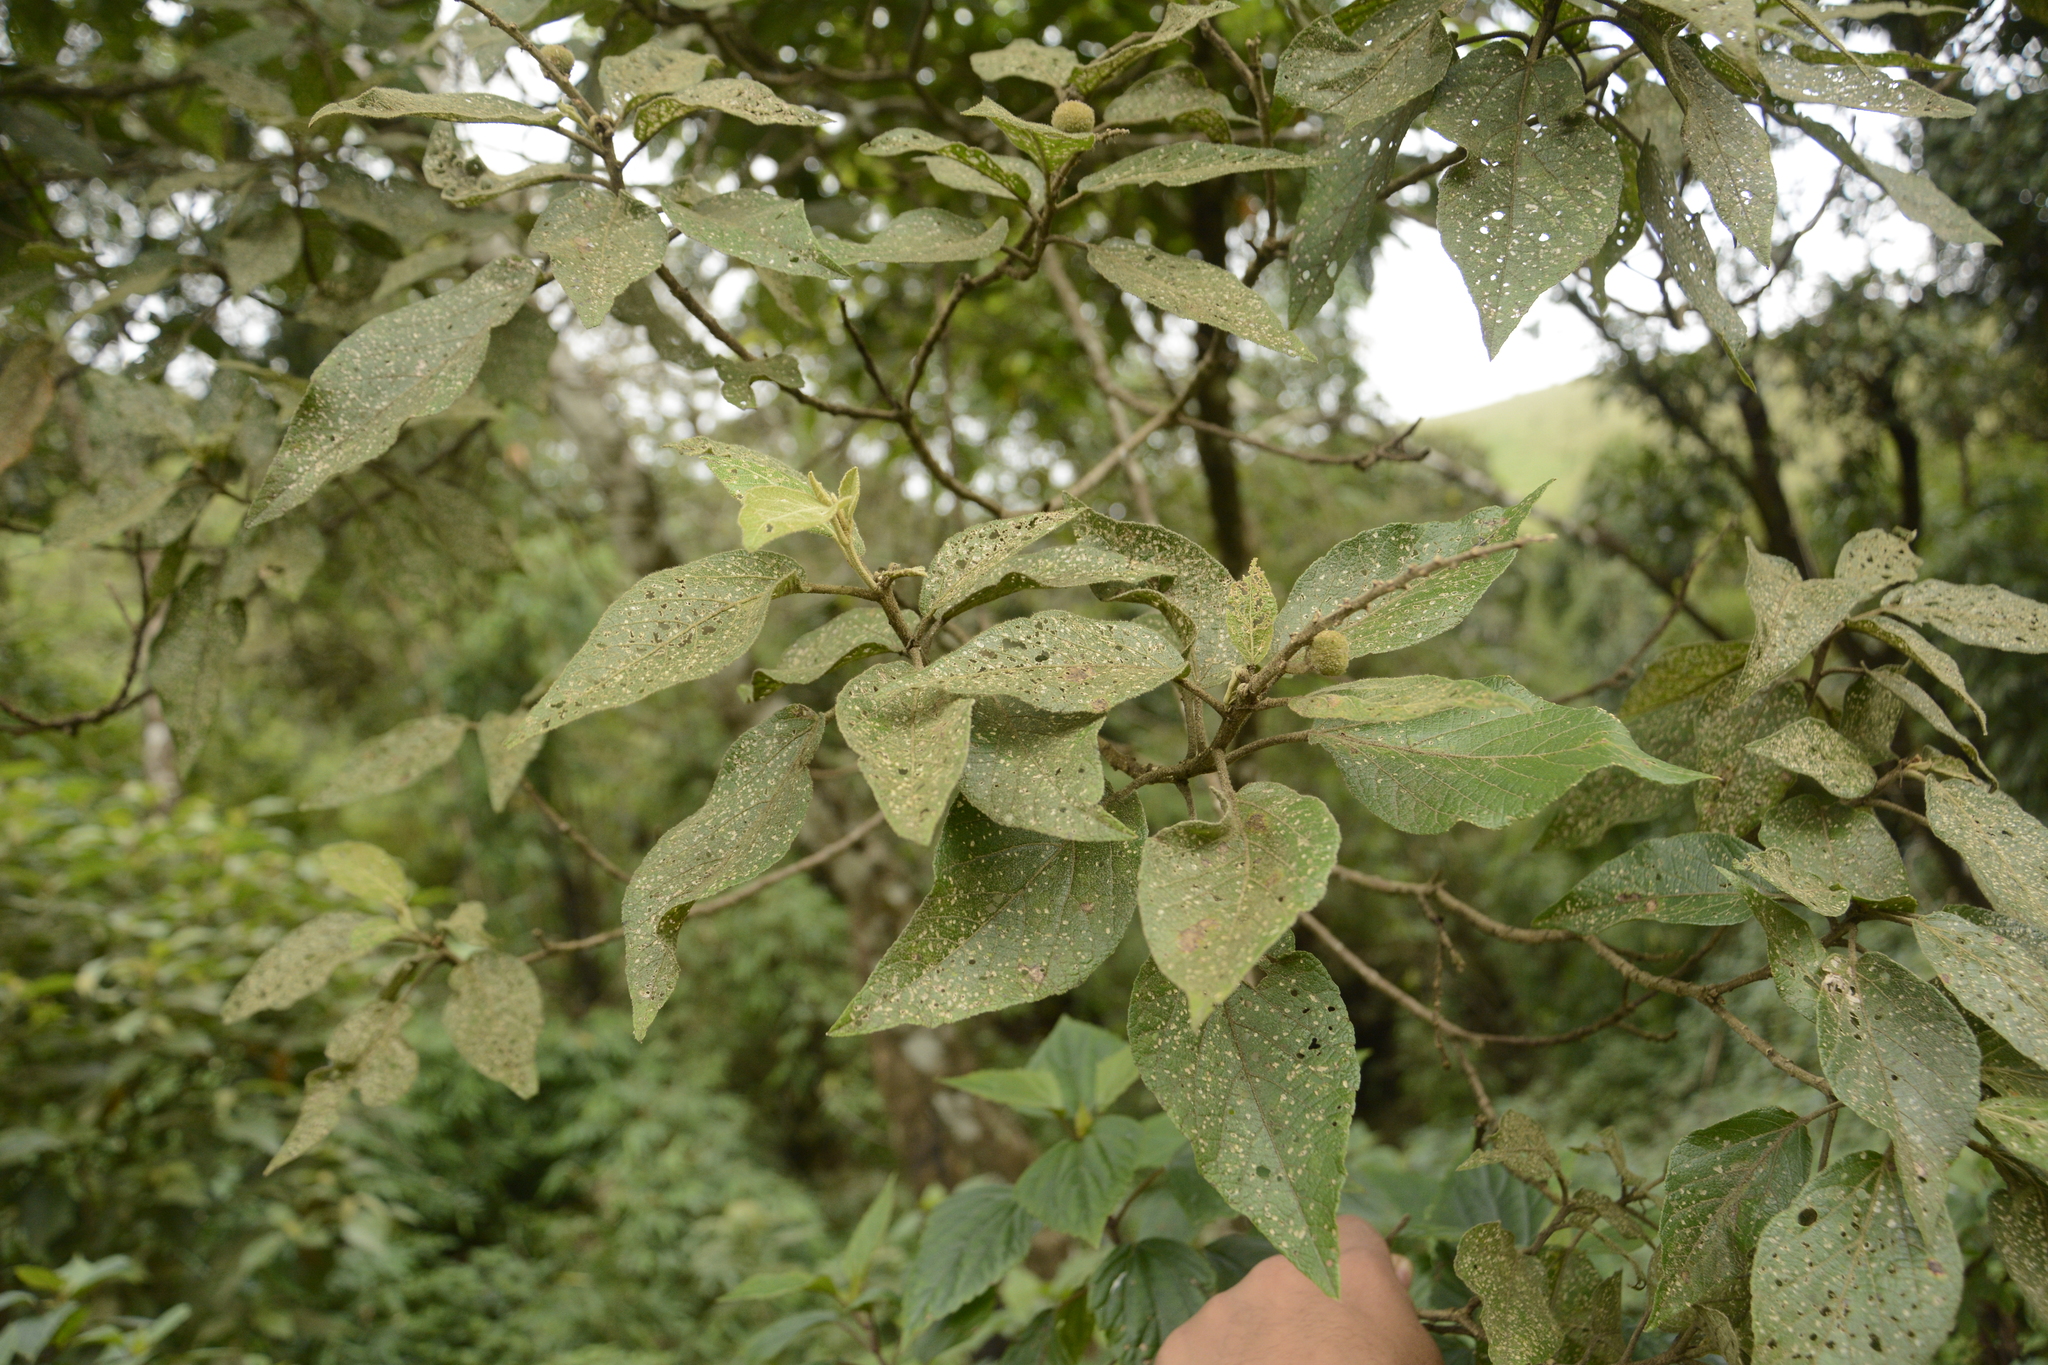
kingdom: Plantae
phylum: Tracheophyta
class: Magnoliopsida
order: Malpighiales
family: Euphorbiaceae
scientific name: Euphorbiaceae
